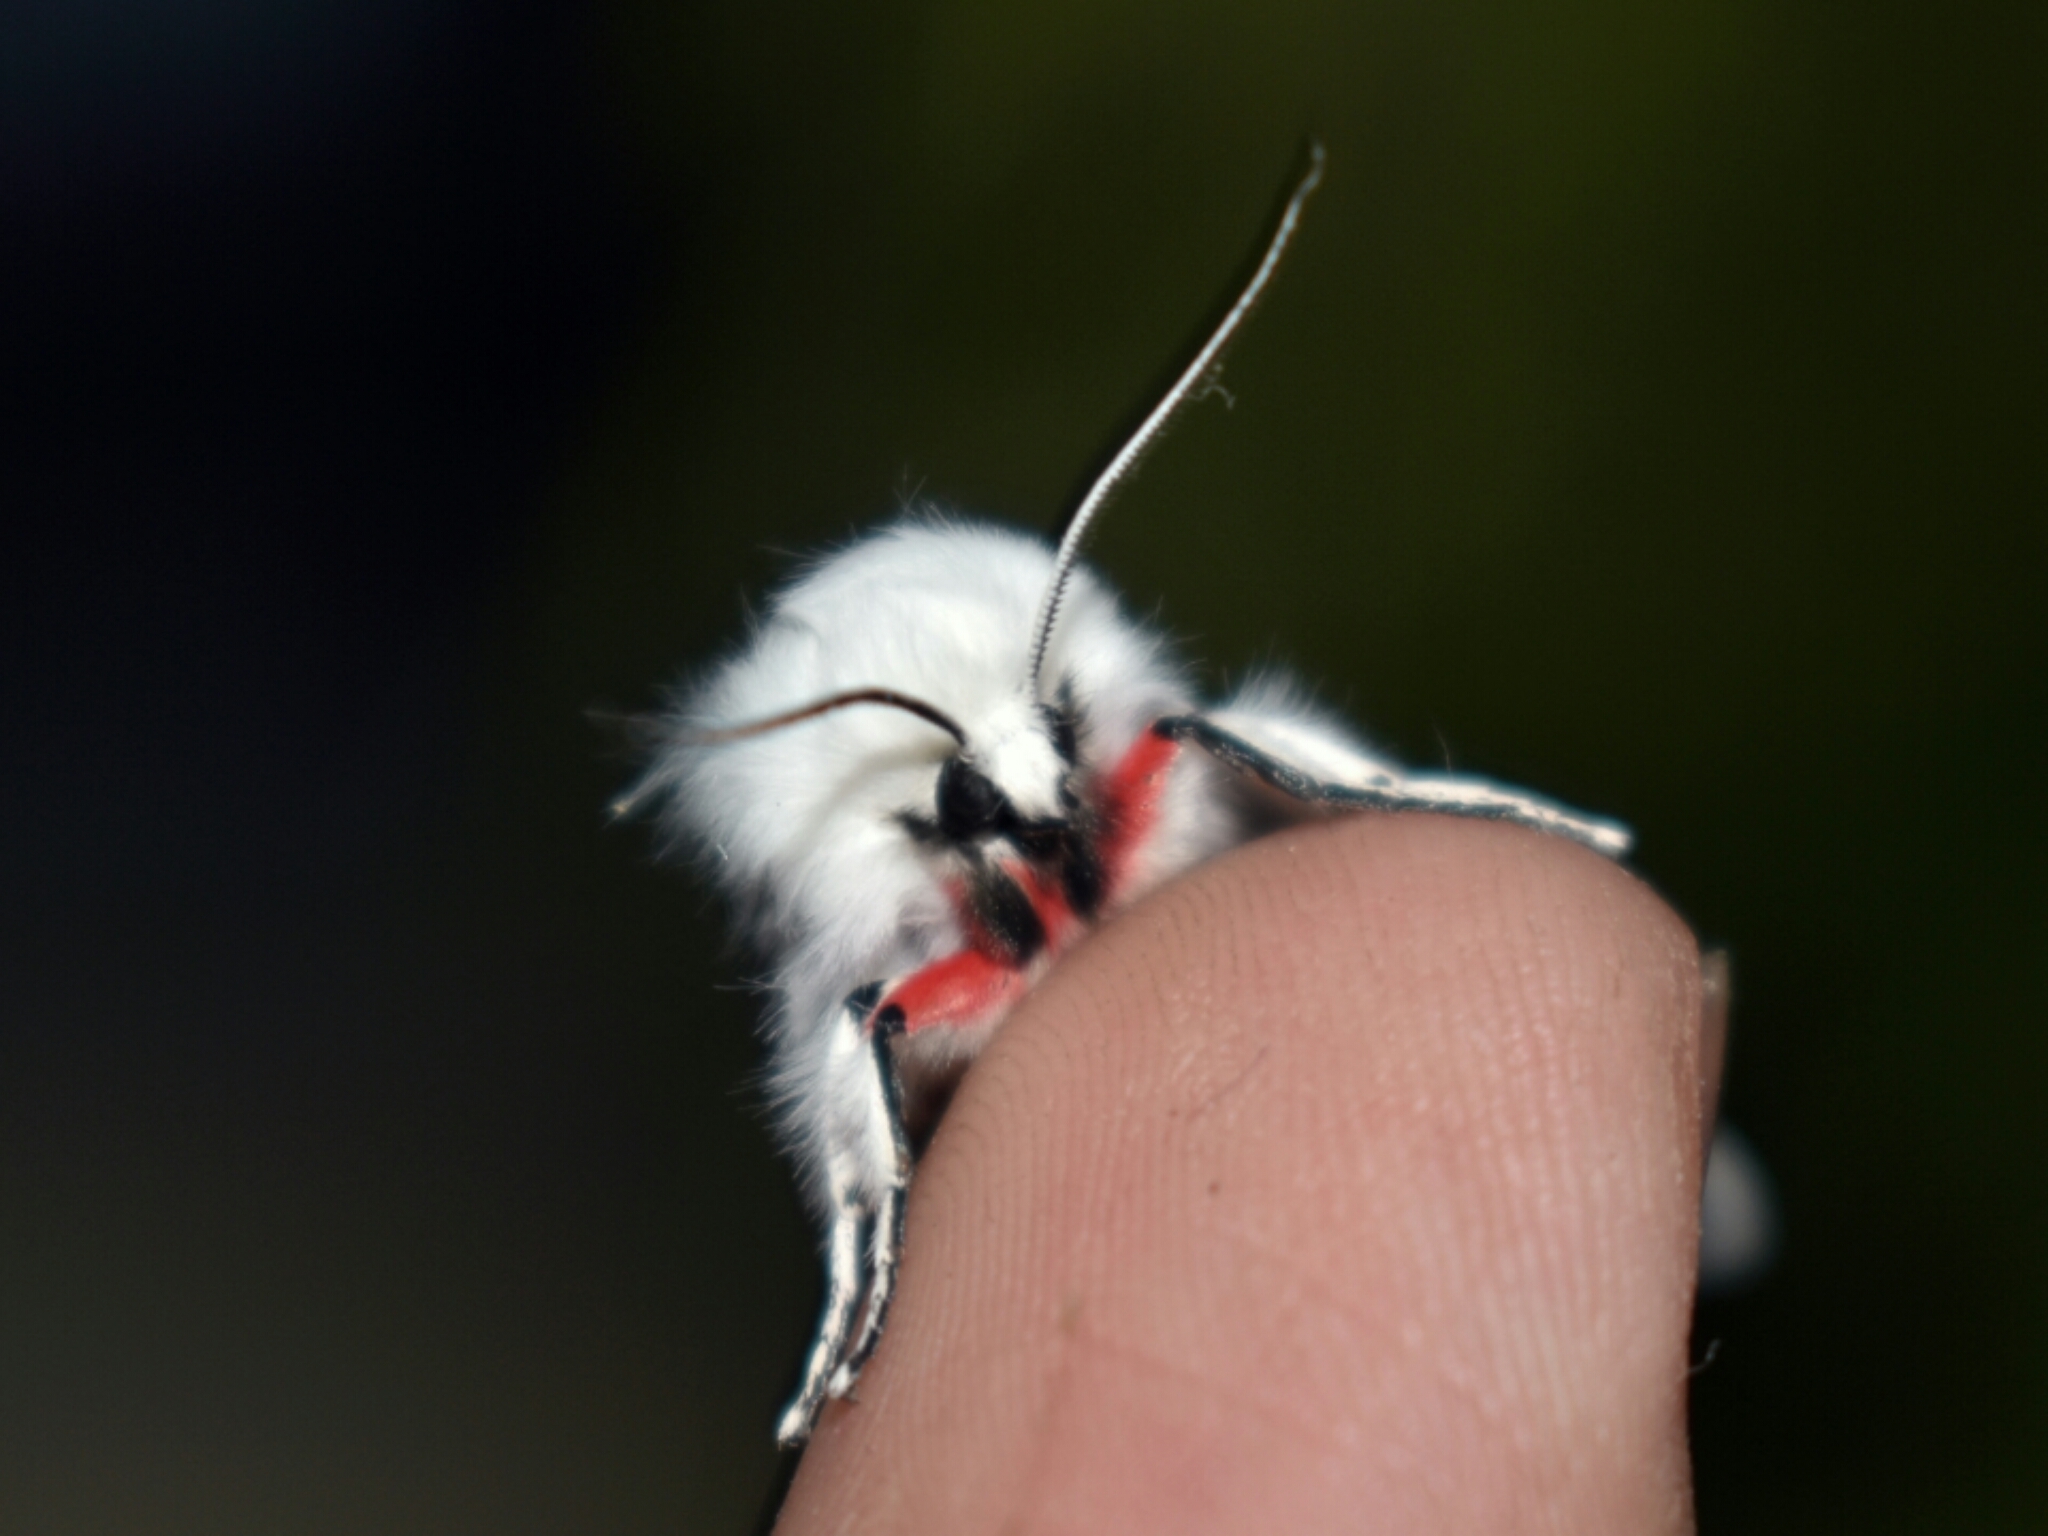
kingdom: Animalia
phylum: Arthropoda
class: Insecta
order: Lepidoptera
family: Erebidae
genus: Spilosoma
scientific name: Spilosoma vestalis
